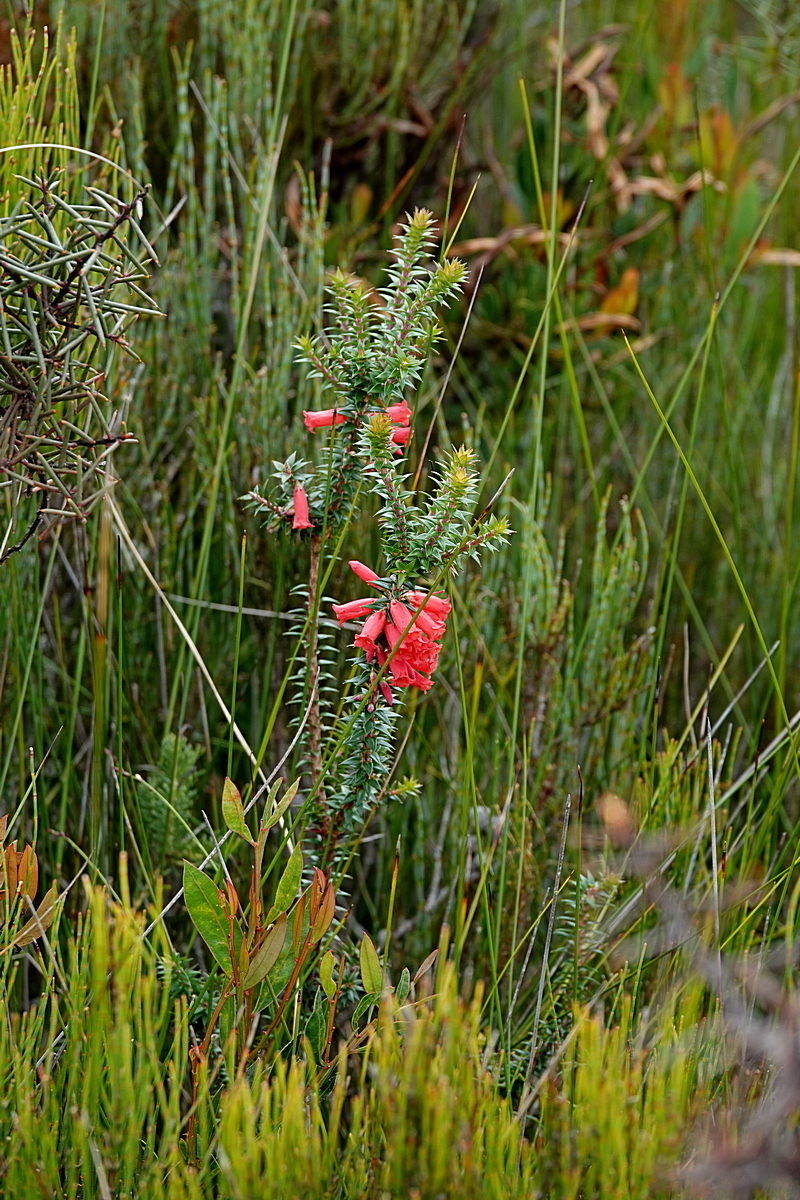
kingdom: Plantae
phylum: Tracheophyta
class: Magnoliopsida
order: Ericales
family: Ericaceae
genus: Epacris
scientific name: Epacris impressa
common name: Common-heath
